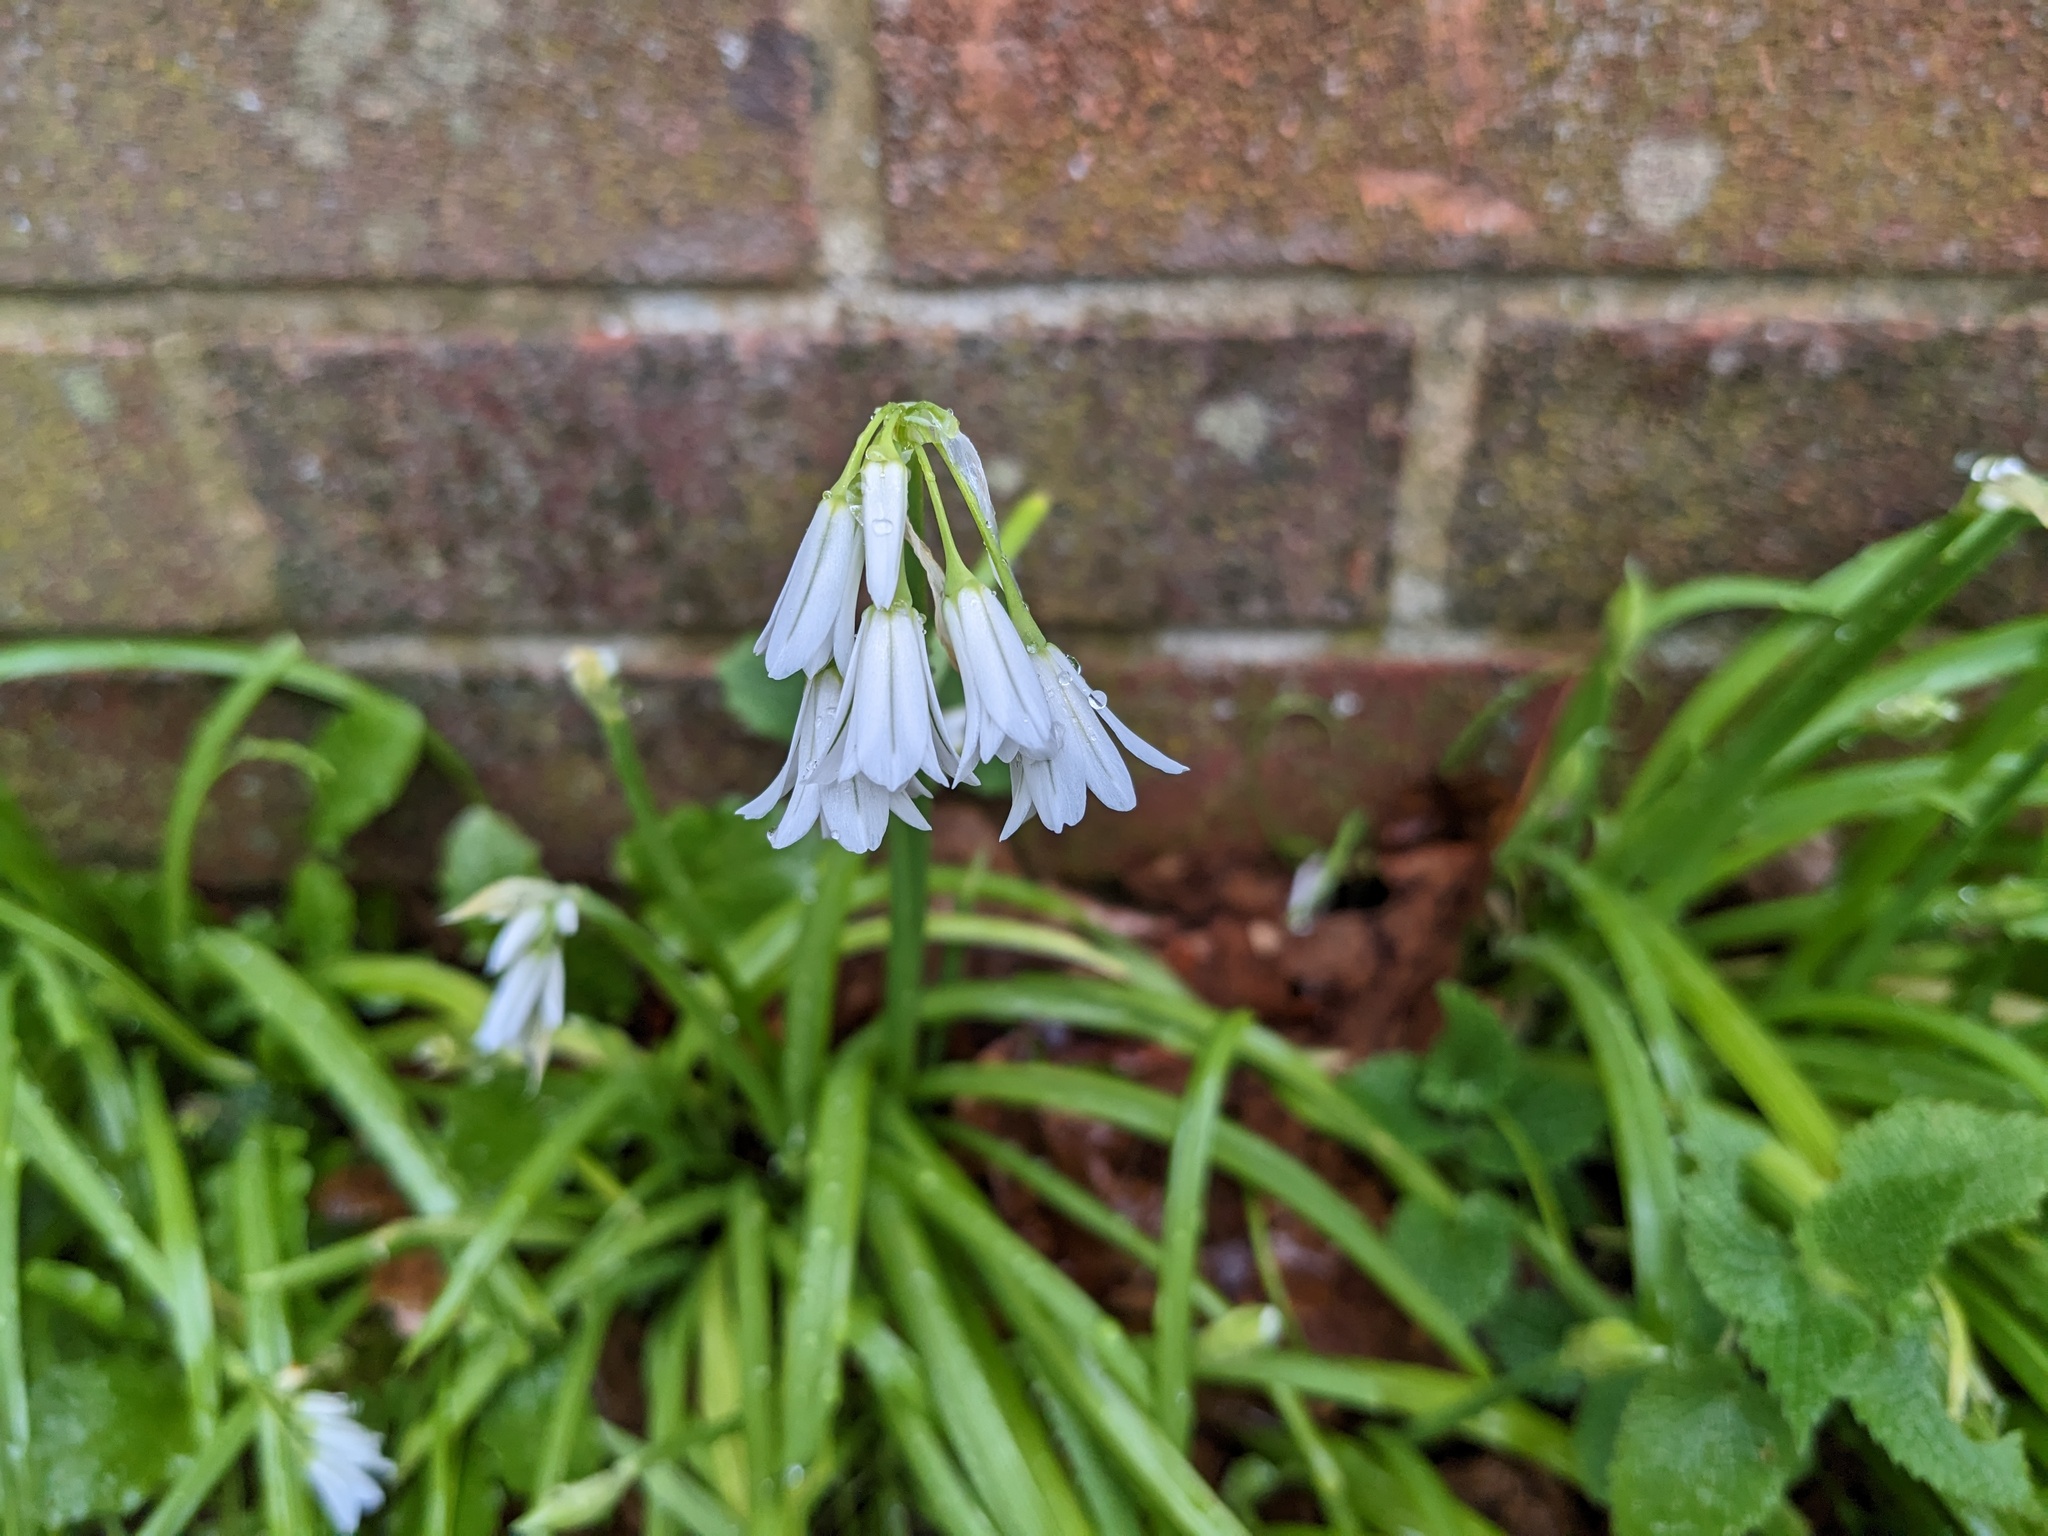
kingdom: Plantae
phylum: Tracheophyta
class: Liliopsida
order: Asparagales
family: Amaryllidaceae
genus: Allium
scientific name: Allium triquetrum
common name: Three-cornered garlic
